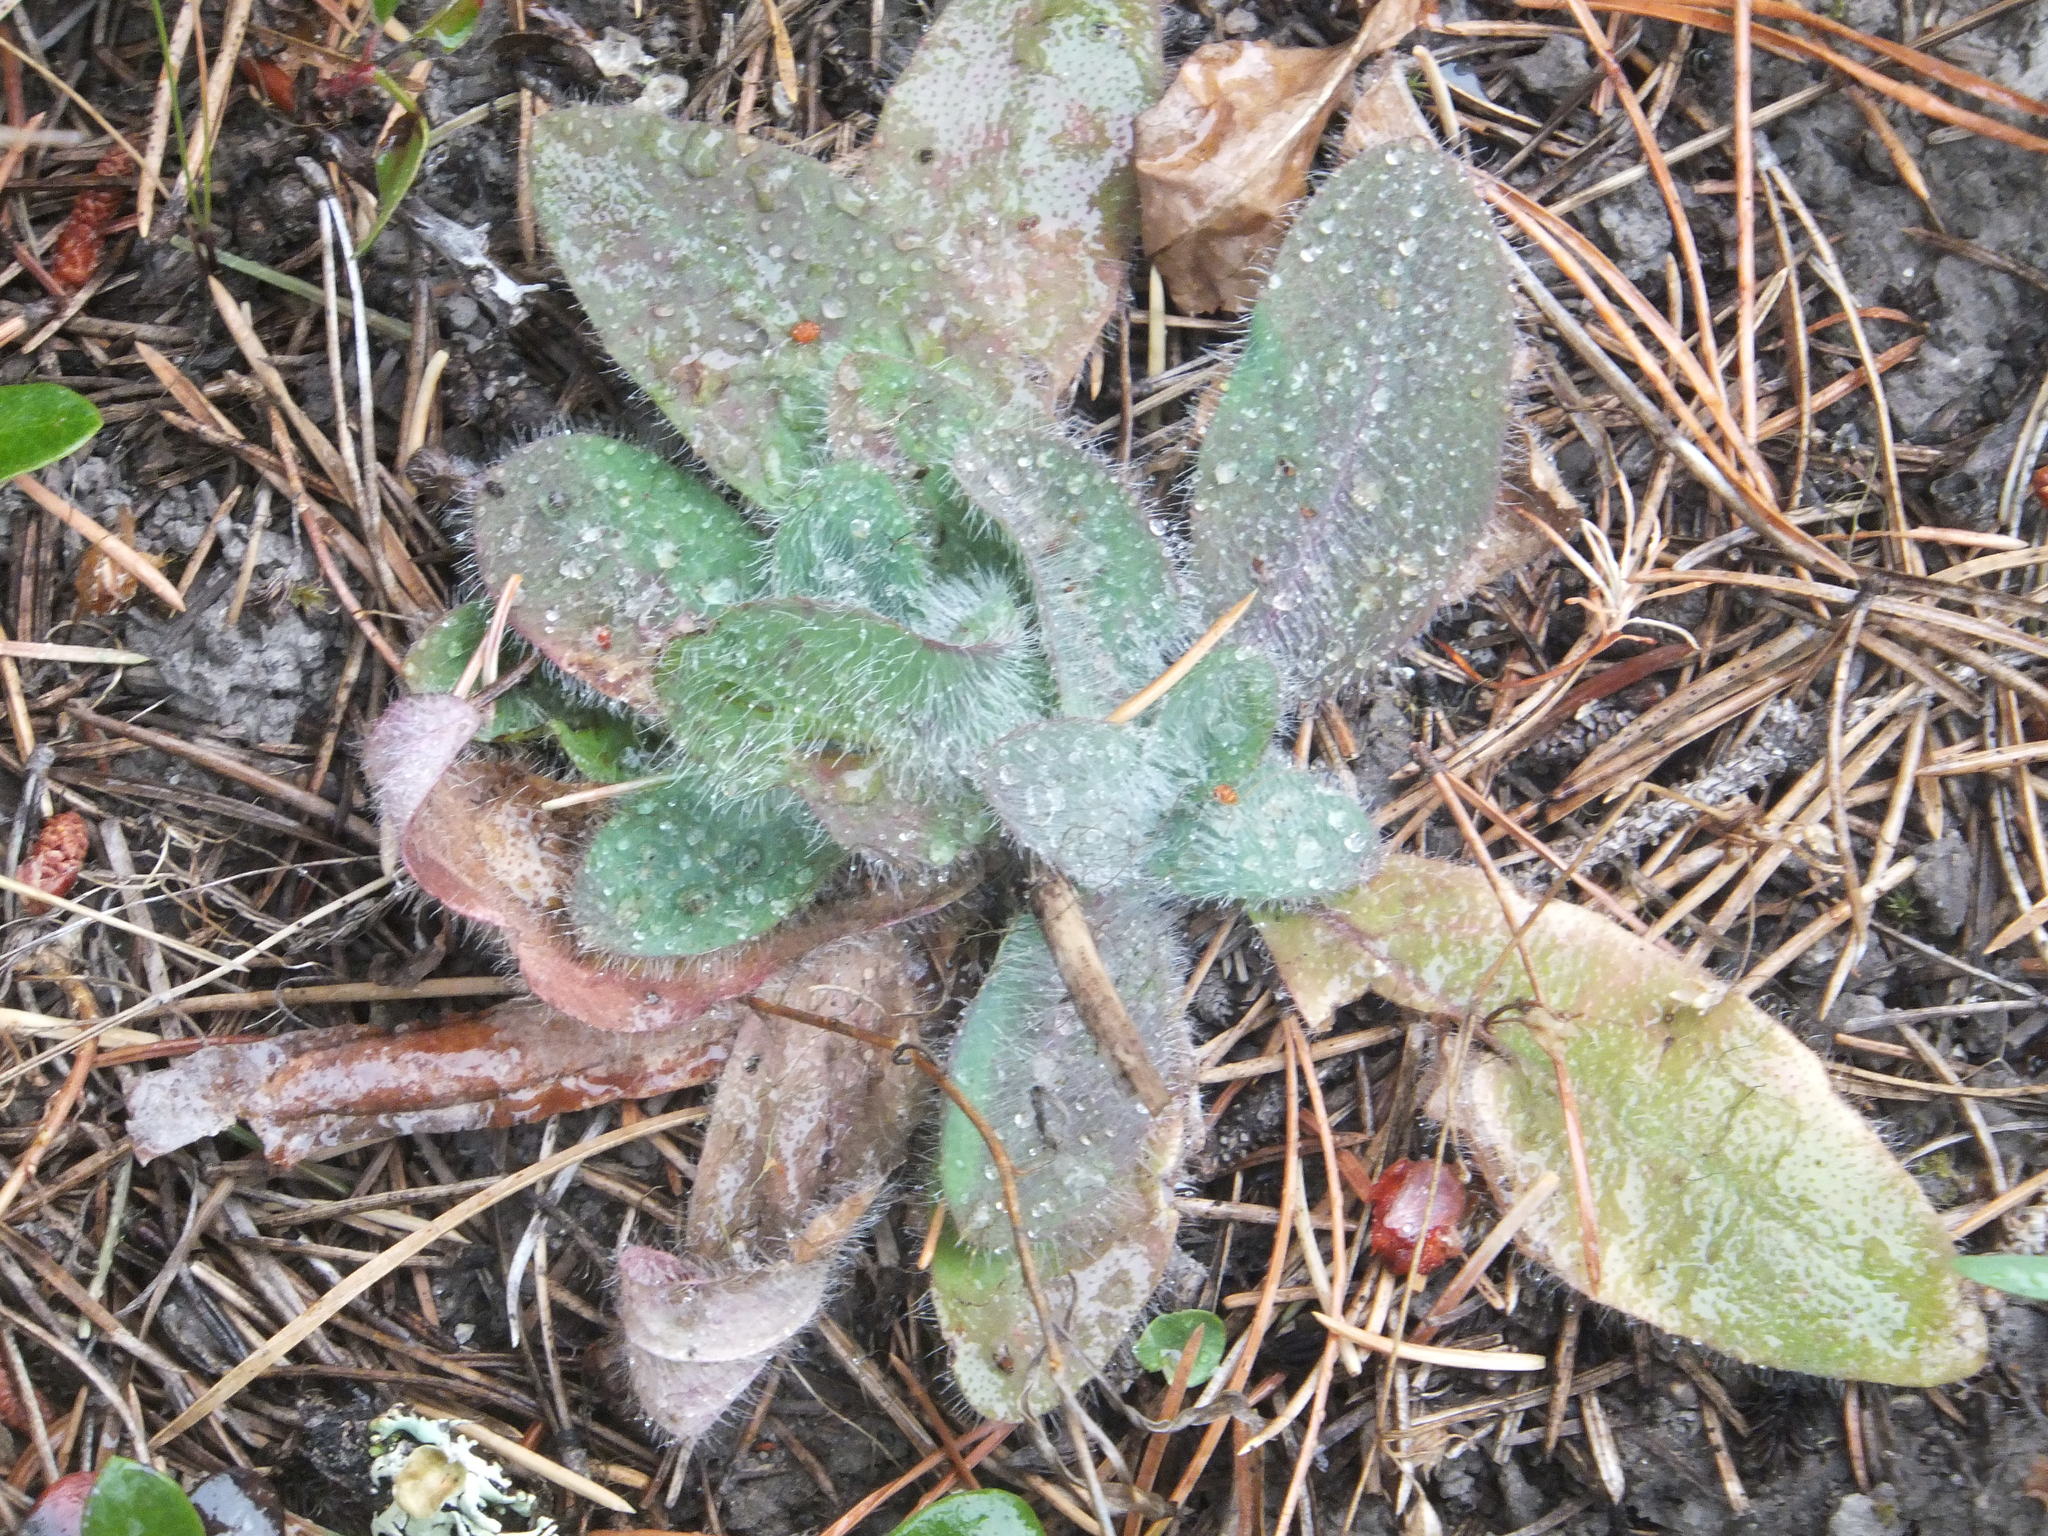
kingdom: Plantae
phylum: Tracheophyta
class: Magnoliopsida
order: Asterales
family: Asteraceae
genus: Hieracium
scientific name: Hieracium albiflorum
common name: White hawkweed
